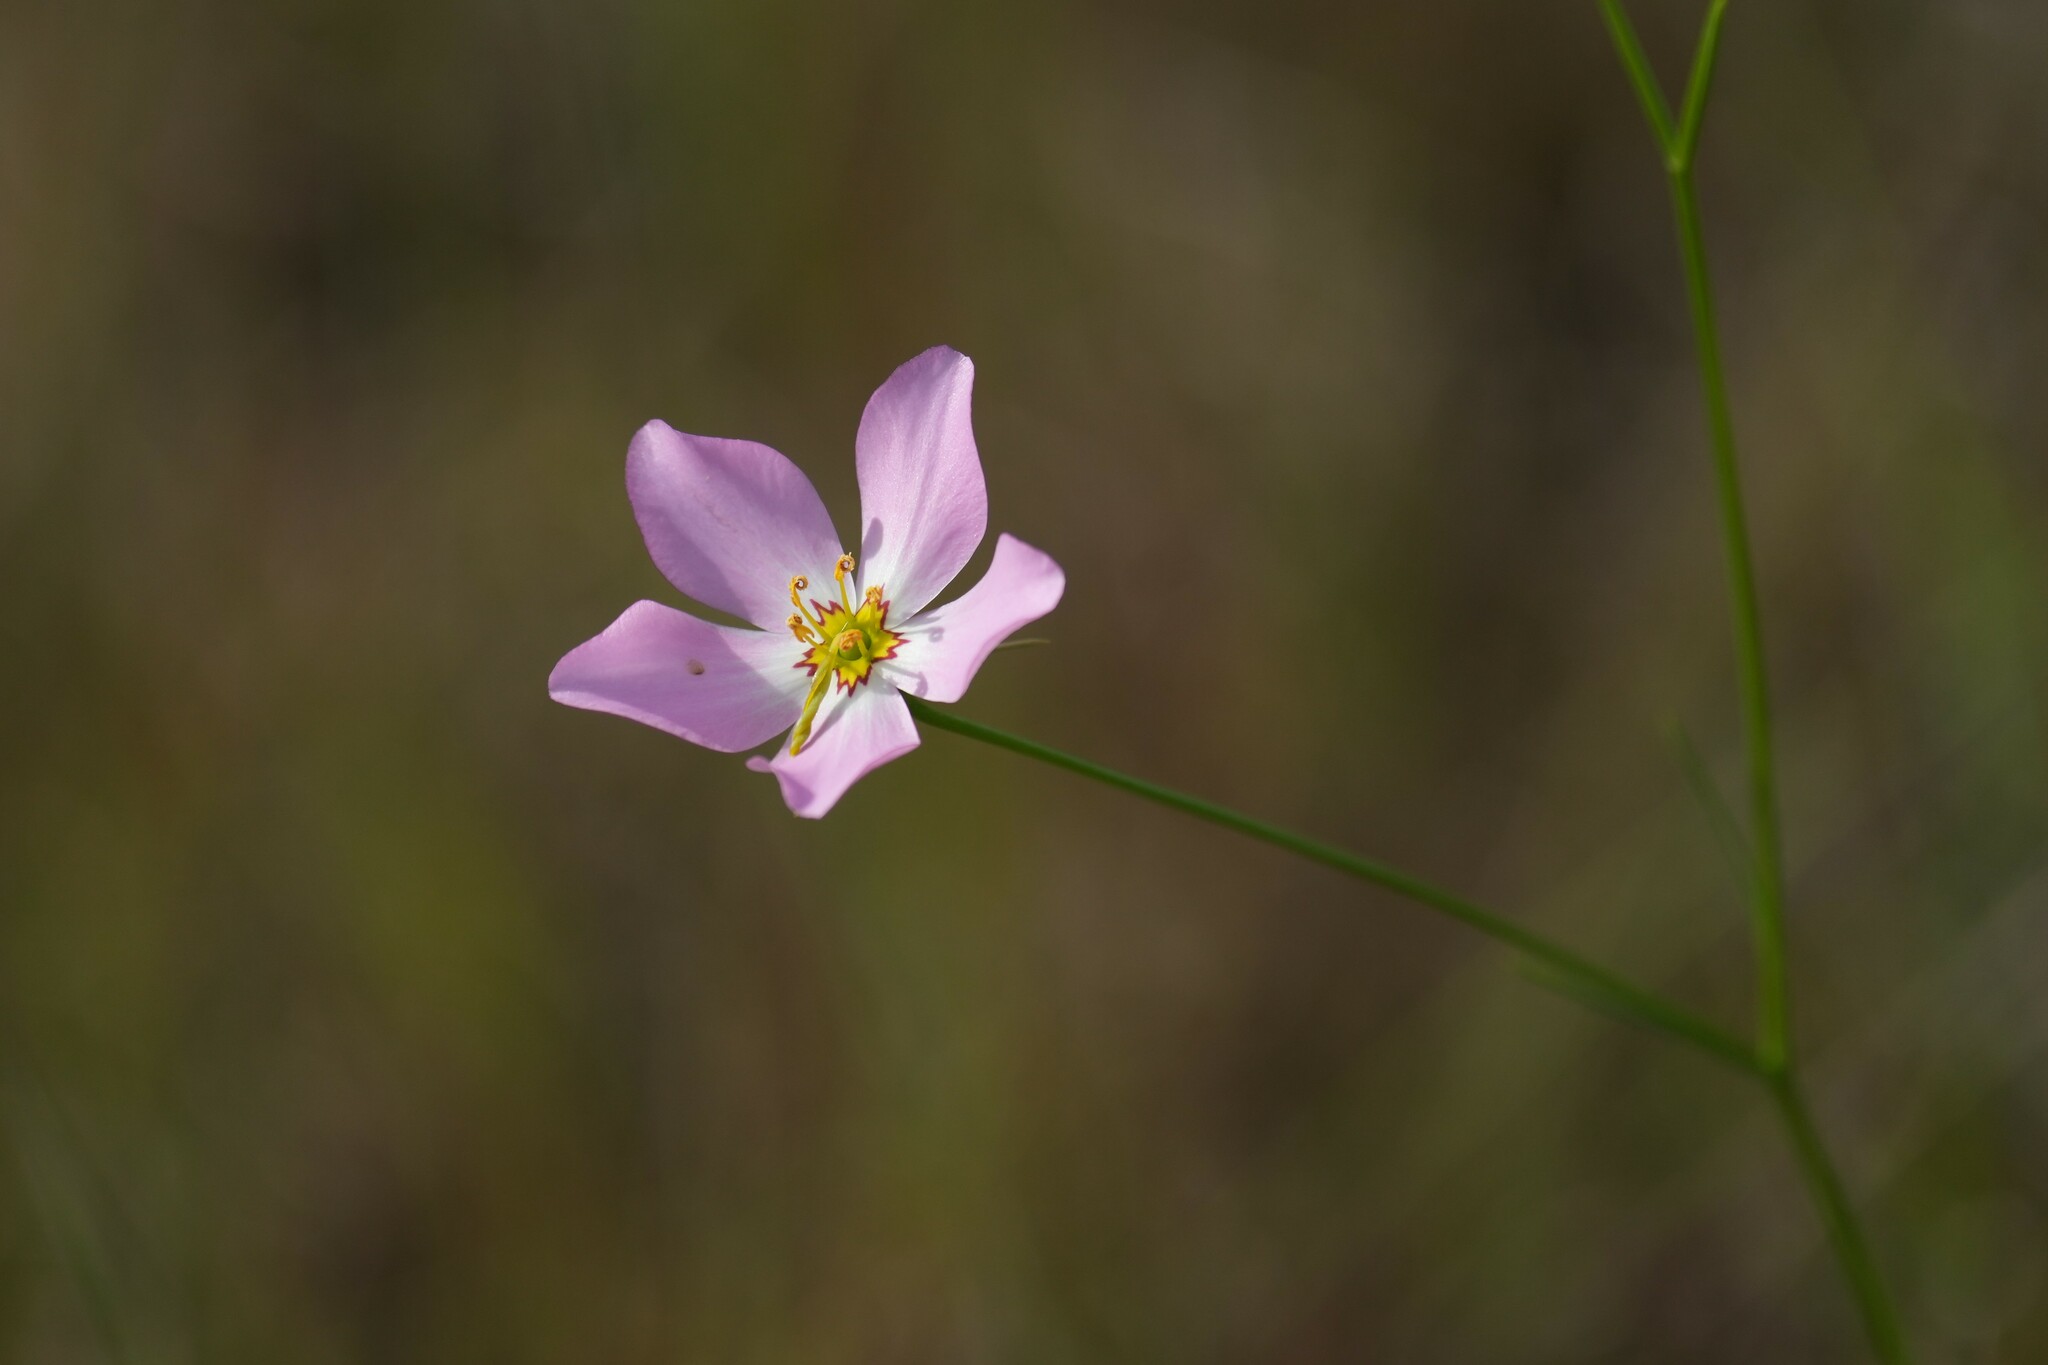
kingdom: Plantae
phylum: Tracheophyta
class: Magnoliopsida
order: Gentianales
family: Gentianaceae
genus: Sabatia
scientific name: Sabatia stellaris
